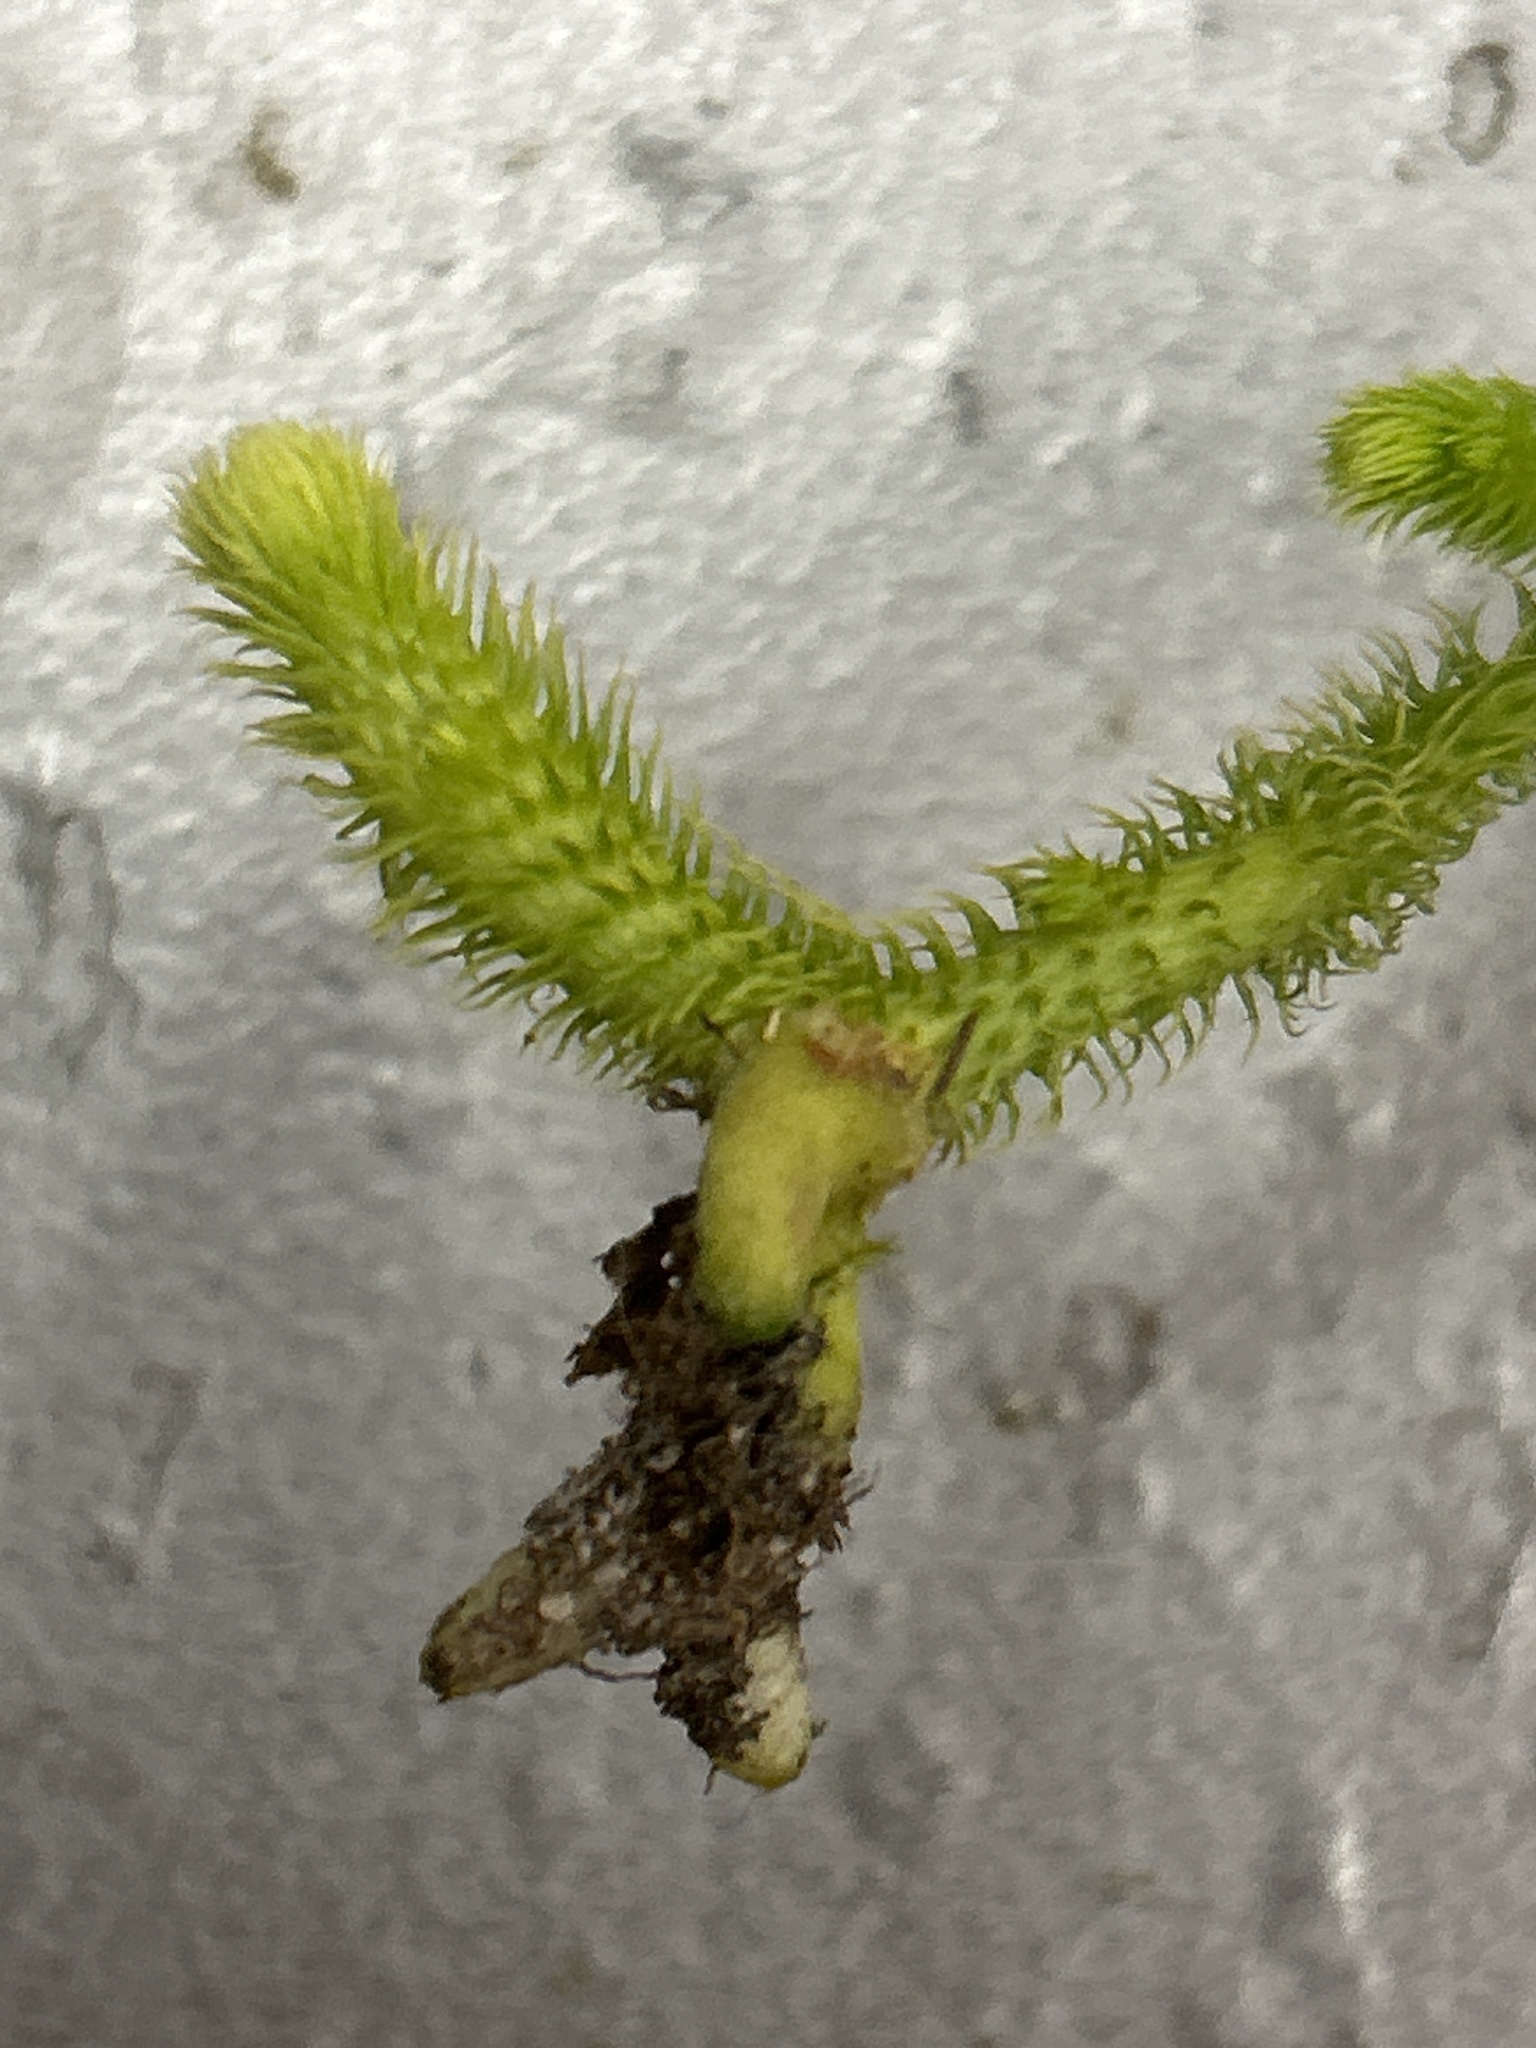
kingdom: Plantae
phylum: Tracheophyta
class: Lycopodiopsida
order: Lycopodiales
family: Lycopodiaceae
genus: Palhinhaea
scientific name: Palhinhaea cernua
